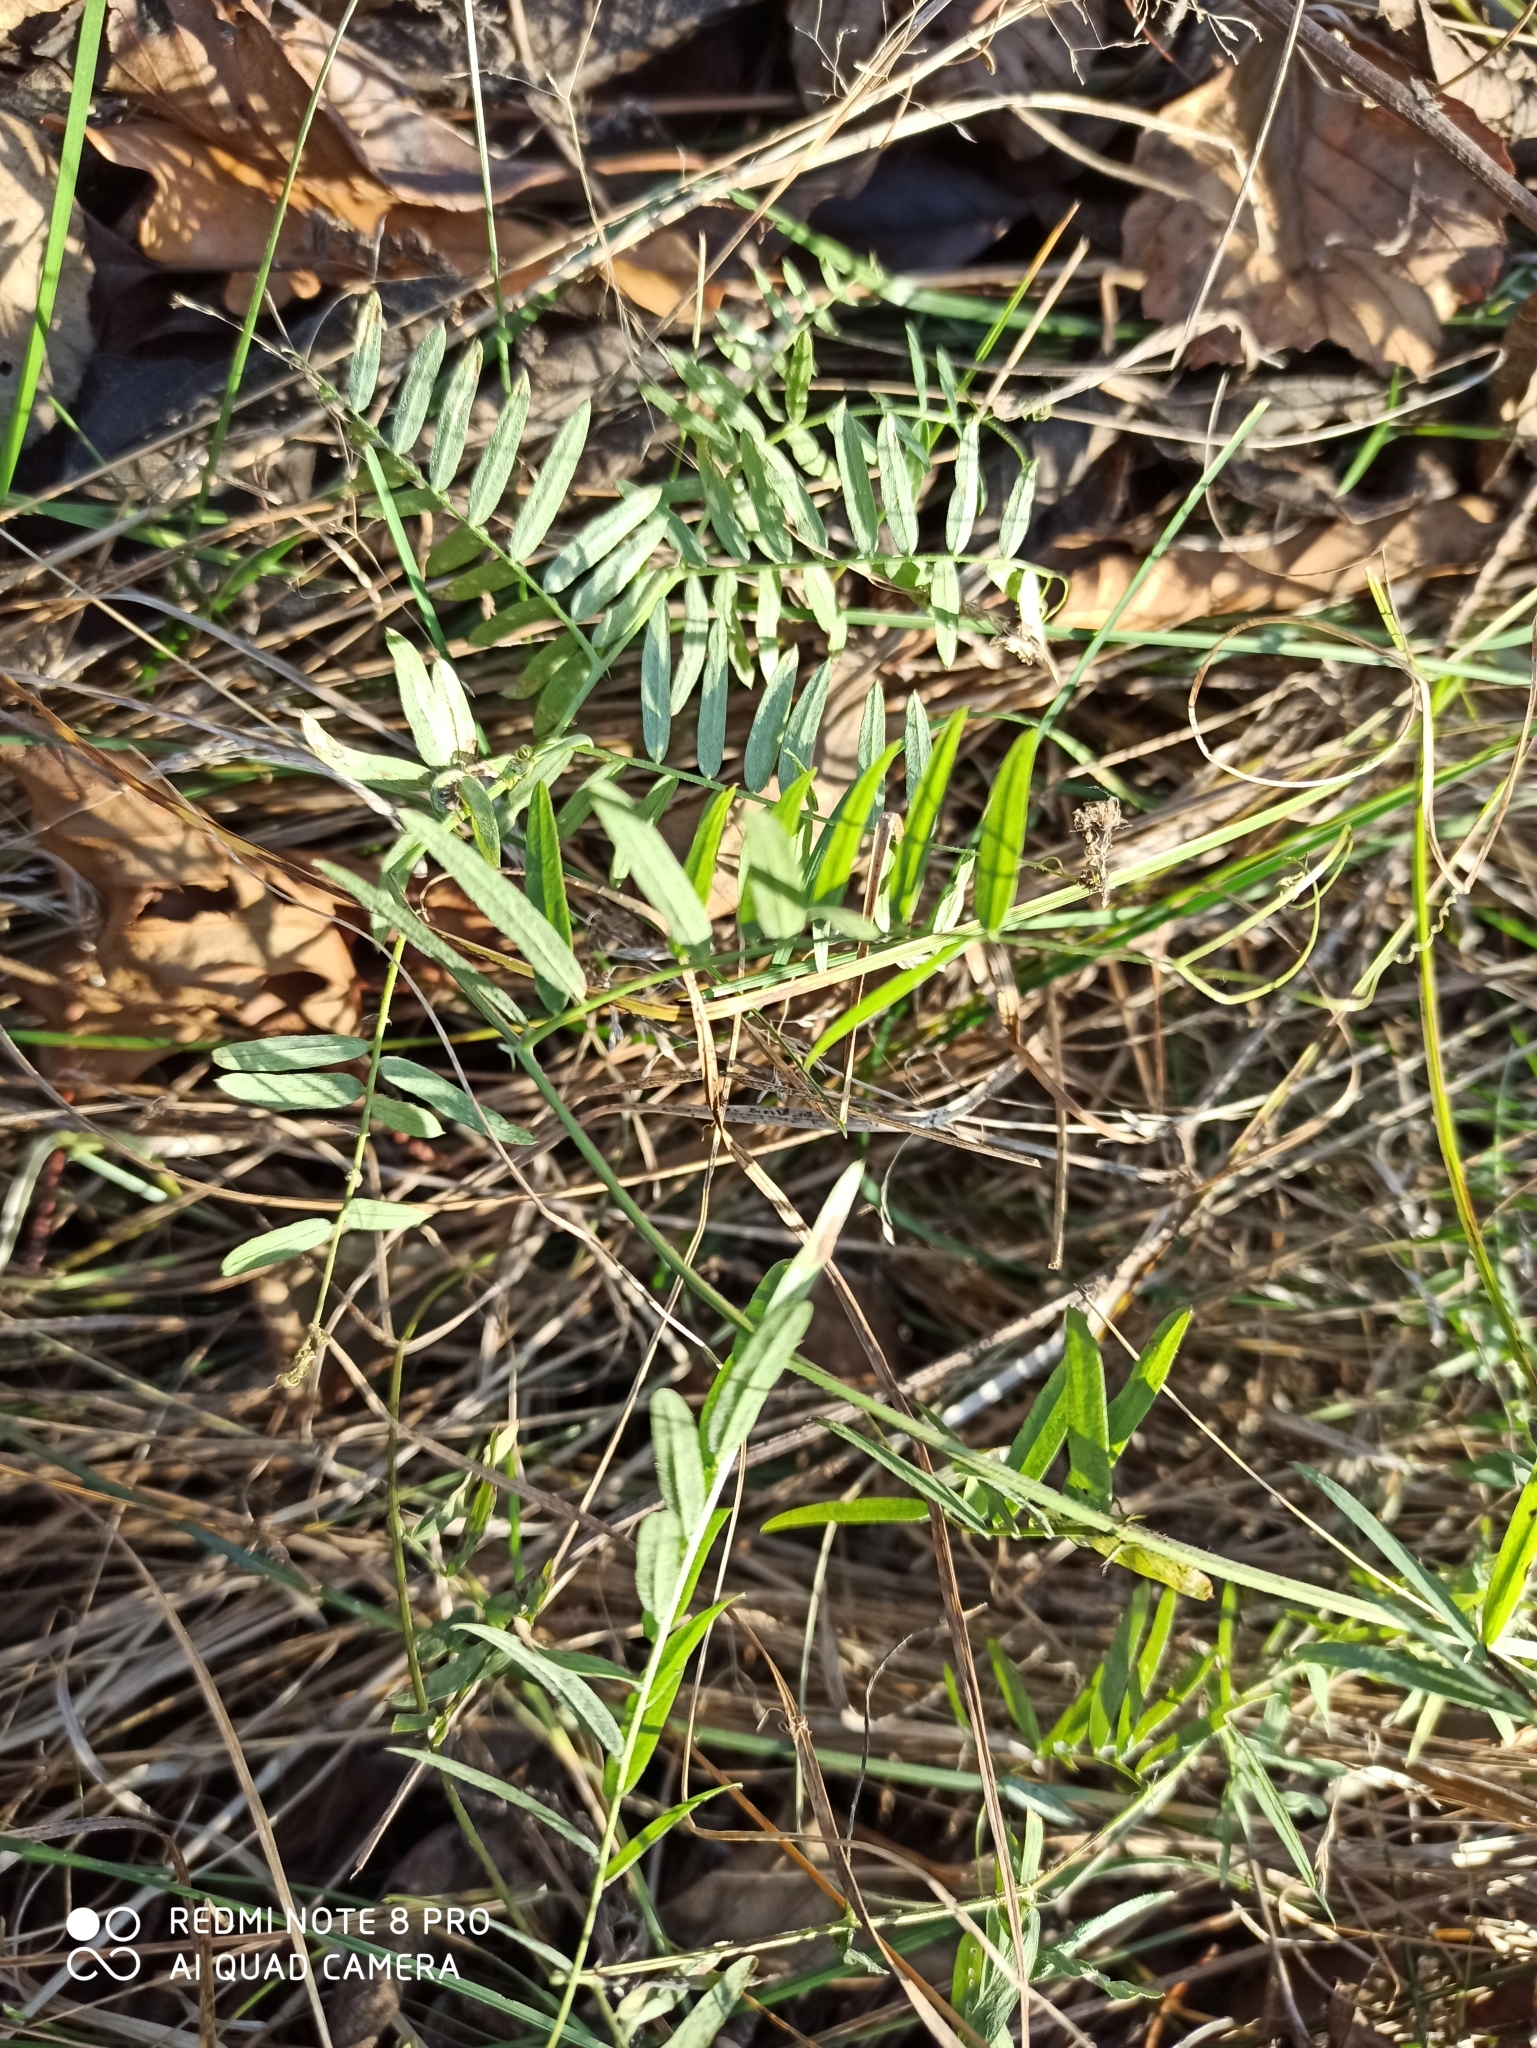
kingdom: Plantae
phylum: Tracheophyta
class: Magnoliopsida
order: Fabales
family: Fabaceae
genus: Vicia
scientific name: Vicia cracca
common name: Bird vetch
